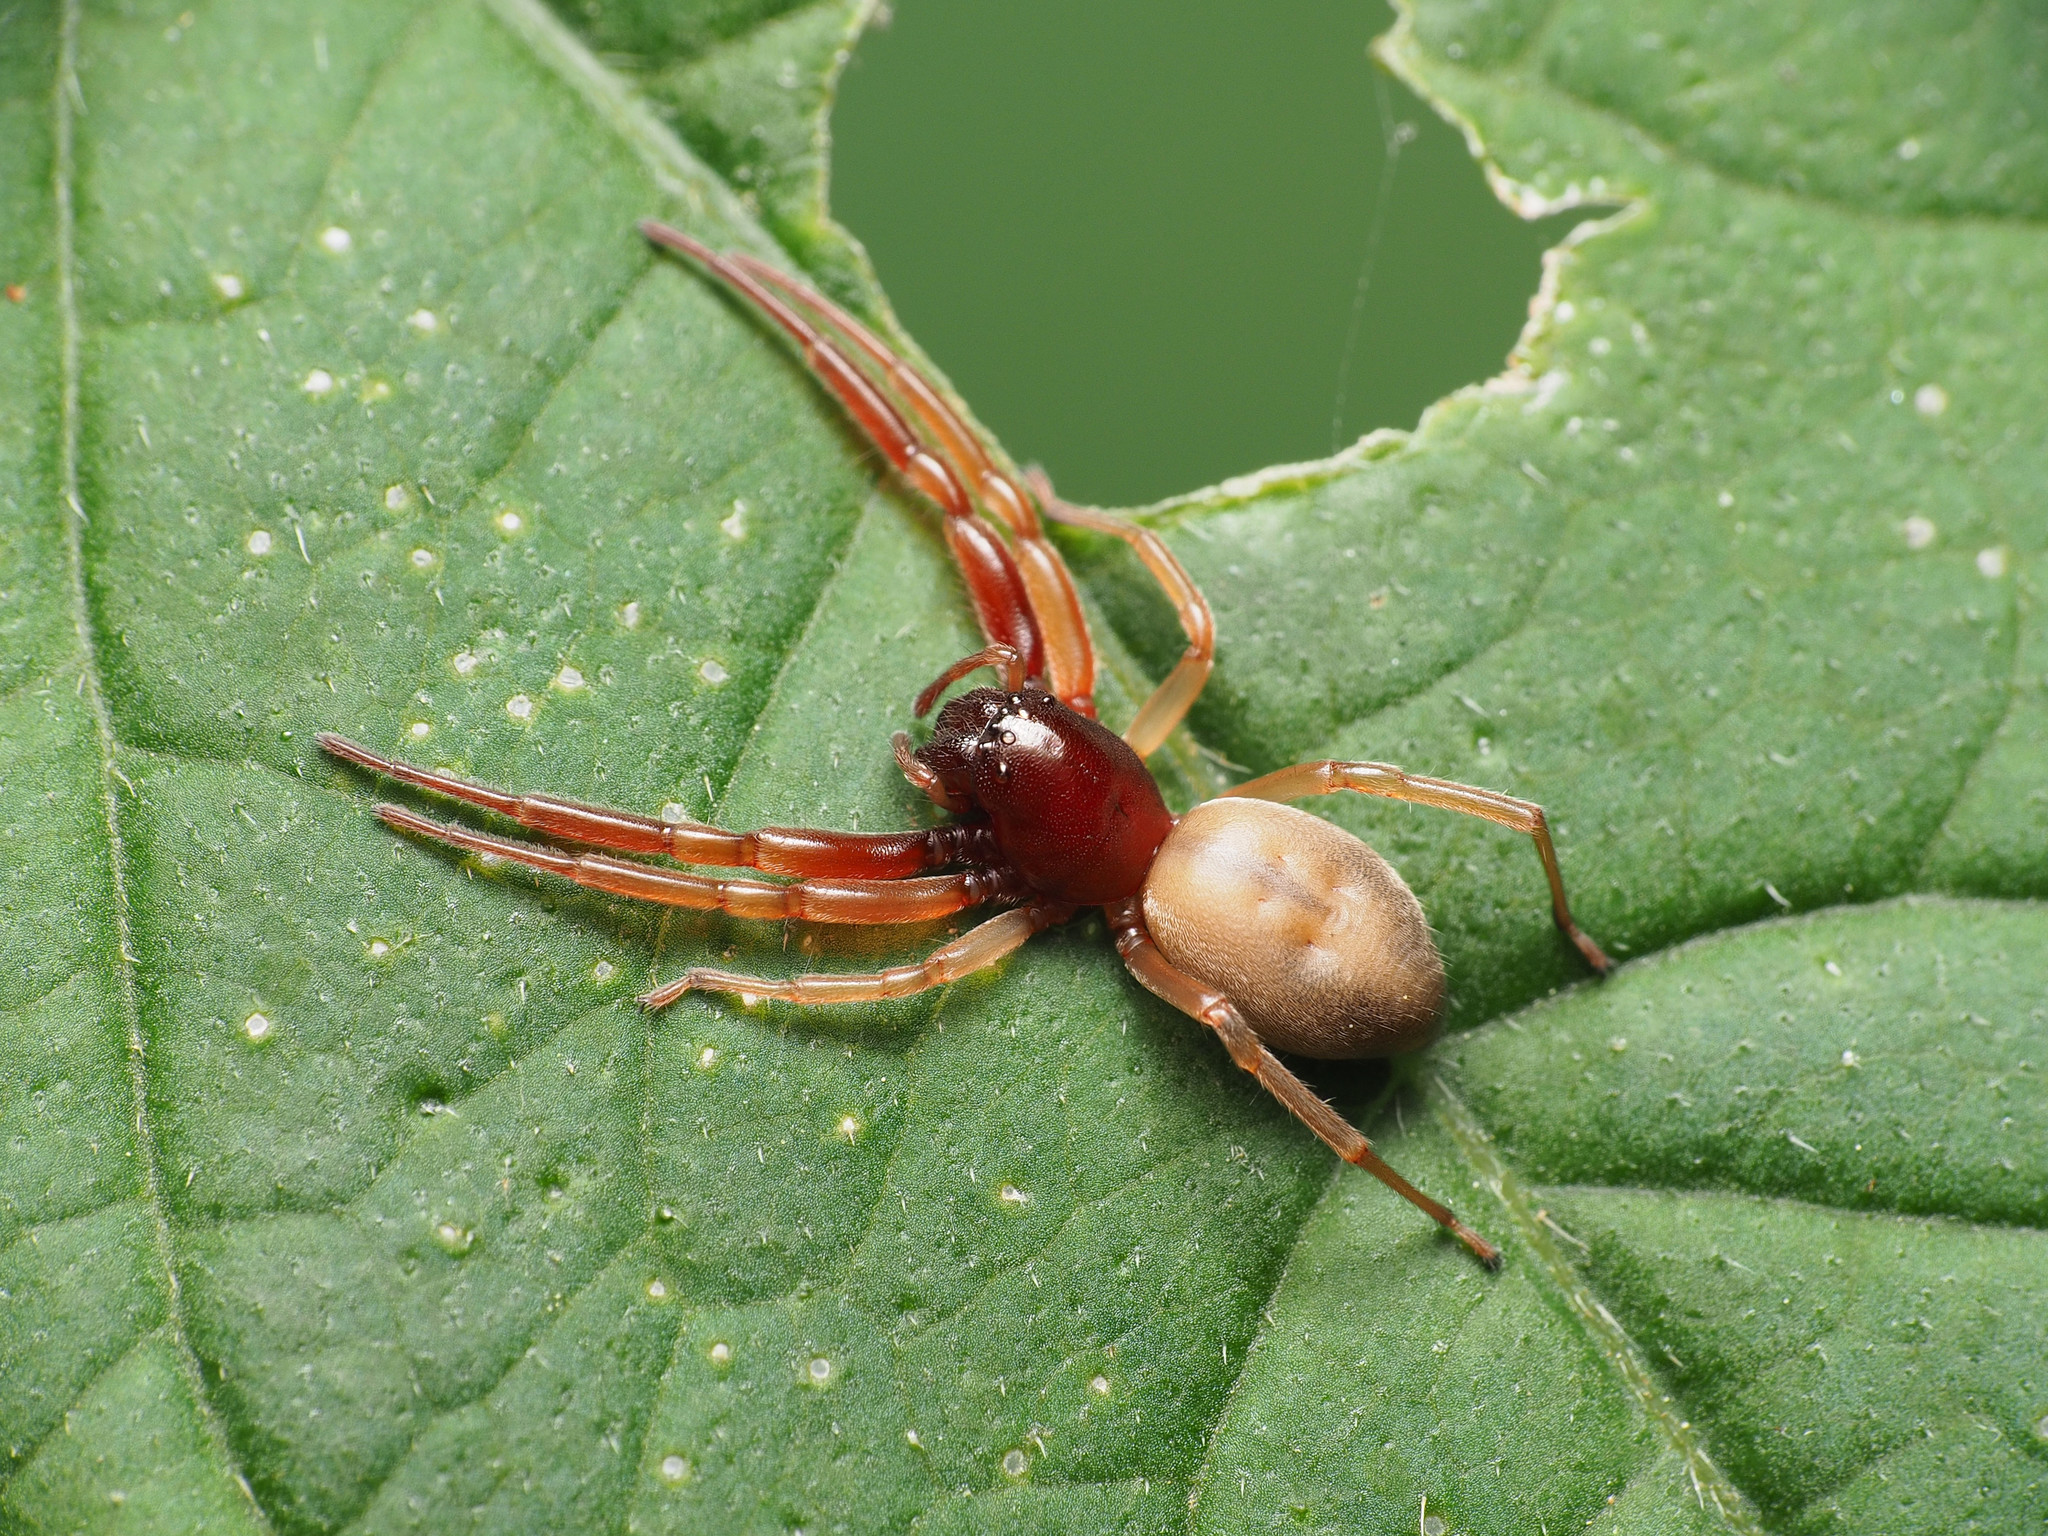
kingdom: Animalia
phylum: Arthropoda
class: Arachnida
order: Araneae
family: Trachelidae
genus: Trachelas
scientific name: Trachelas tranquillus
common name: Broad-faced sac spider
